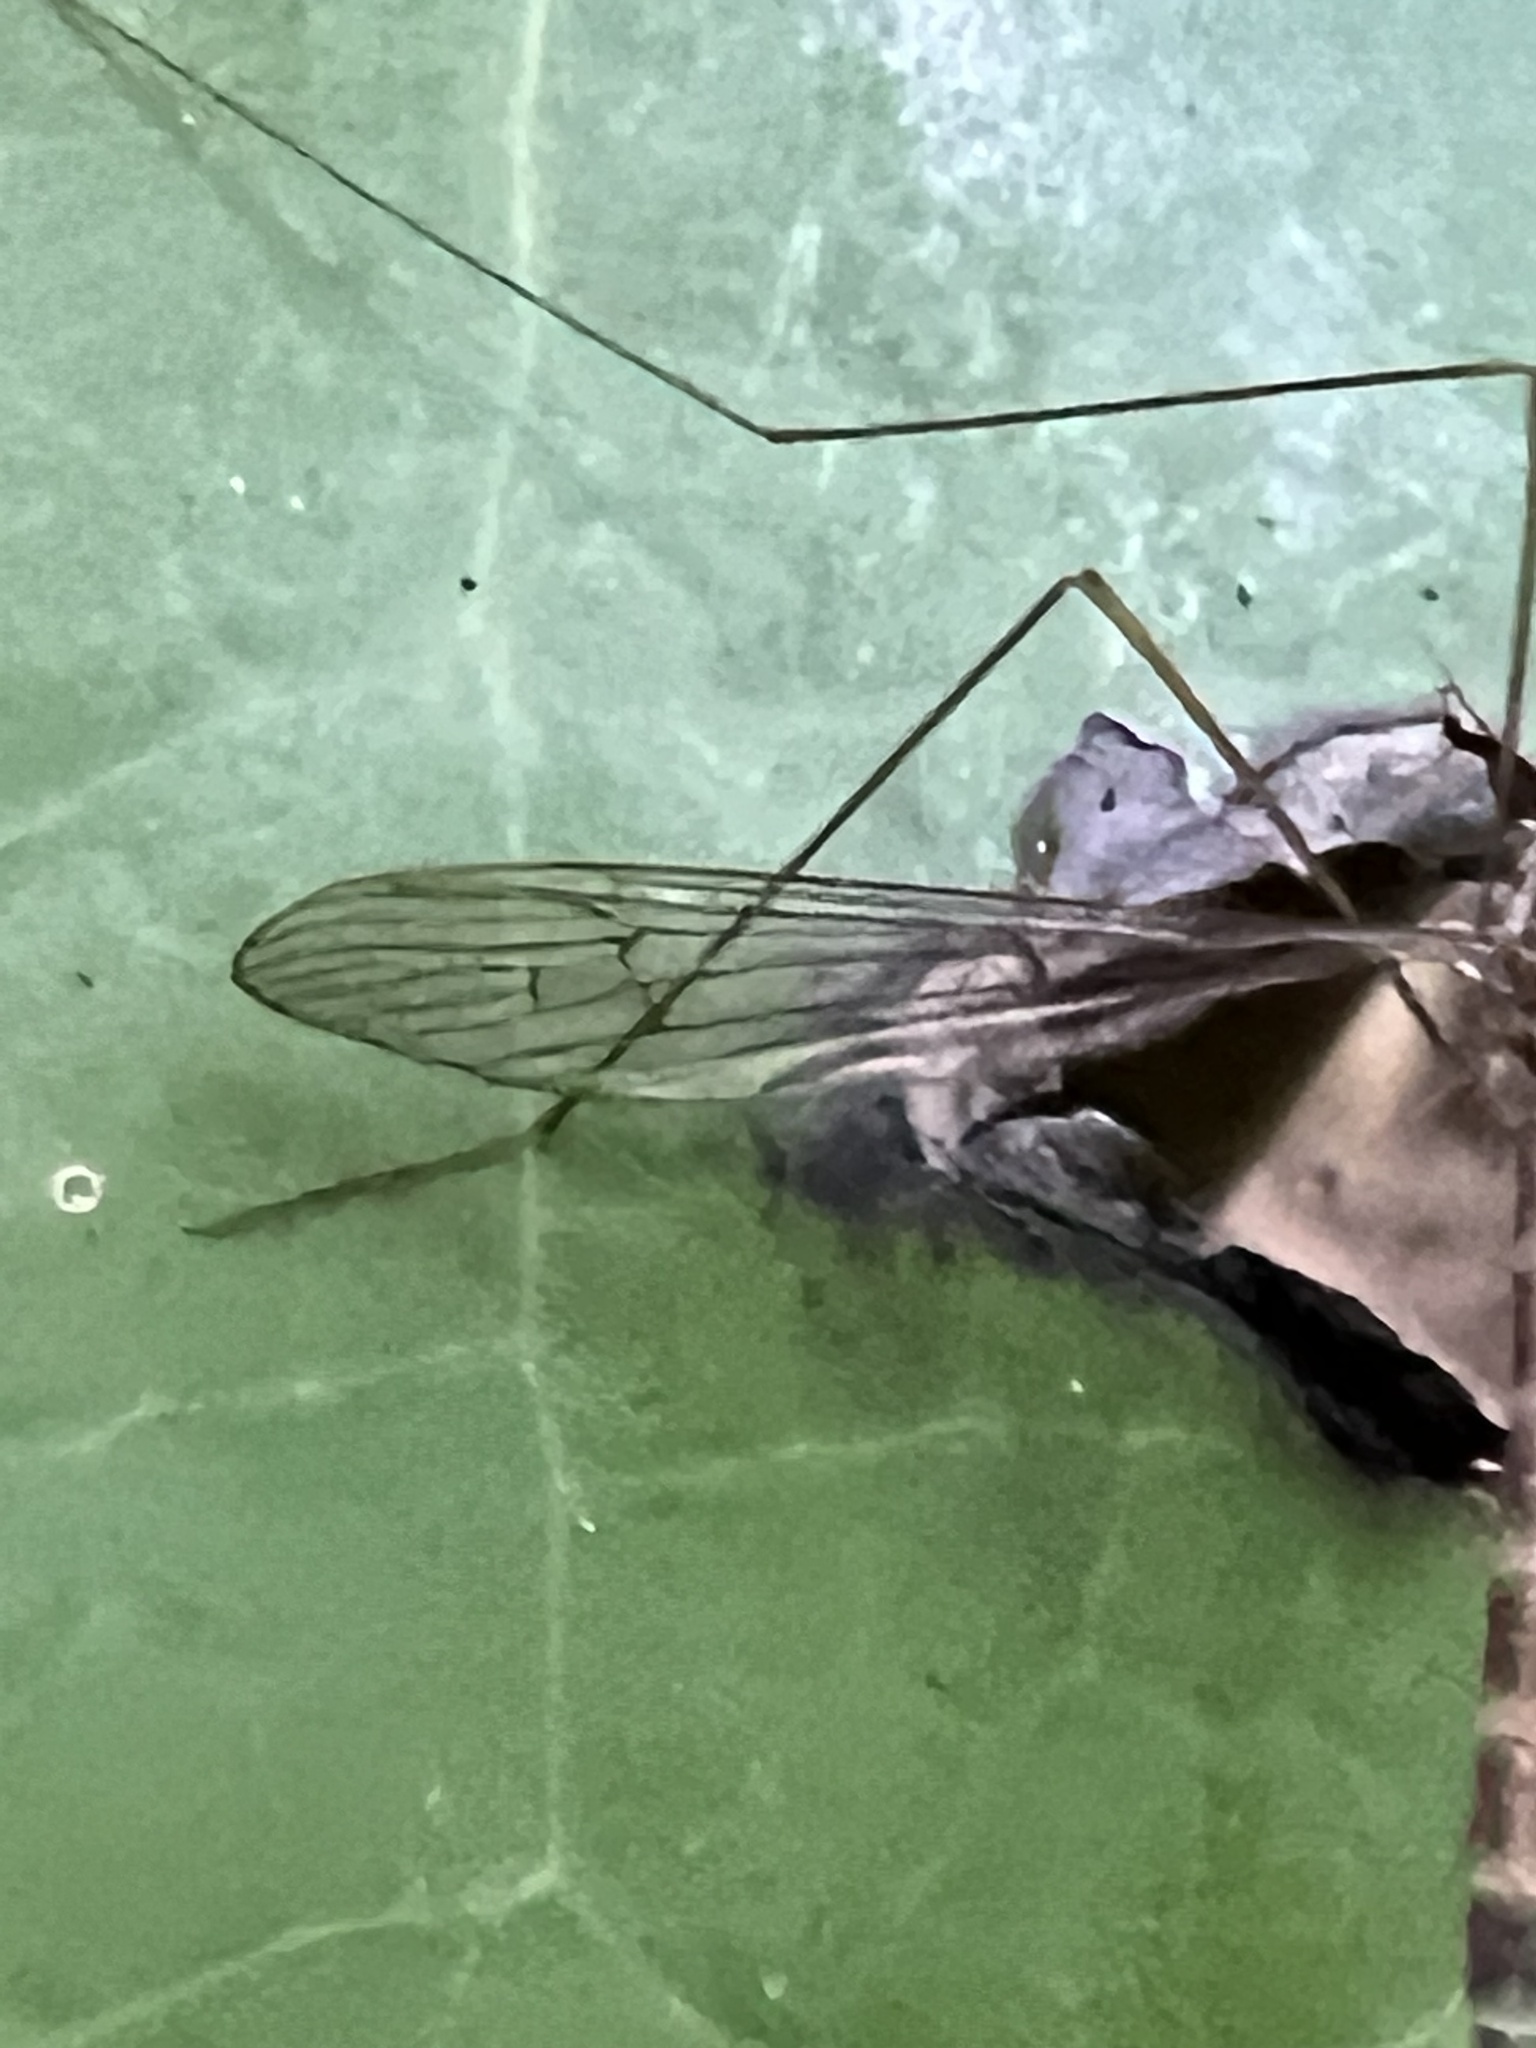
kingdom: Animalia
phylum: Arthropoda
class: Insecta
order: Diptera
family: Limoniidae
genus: Limnophilella
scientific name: Limnophilella delicatula
